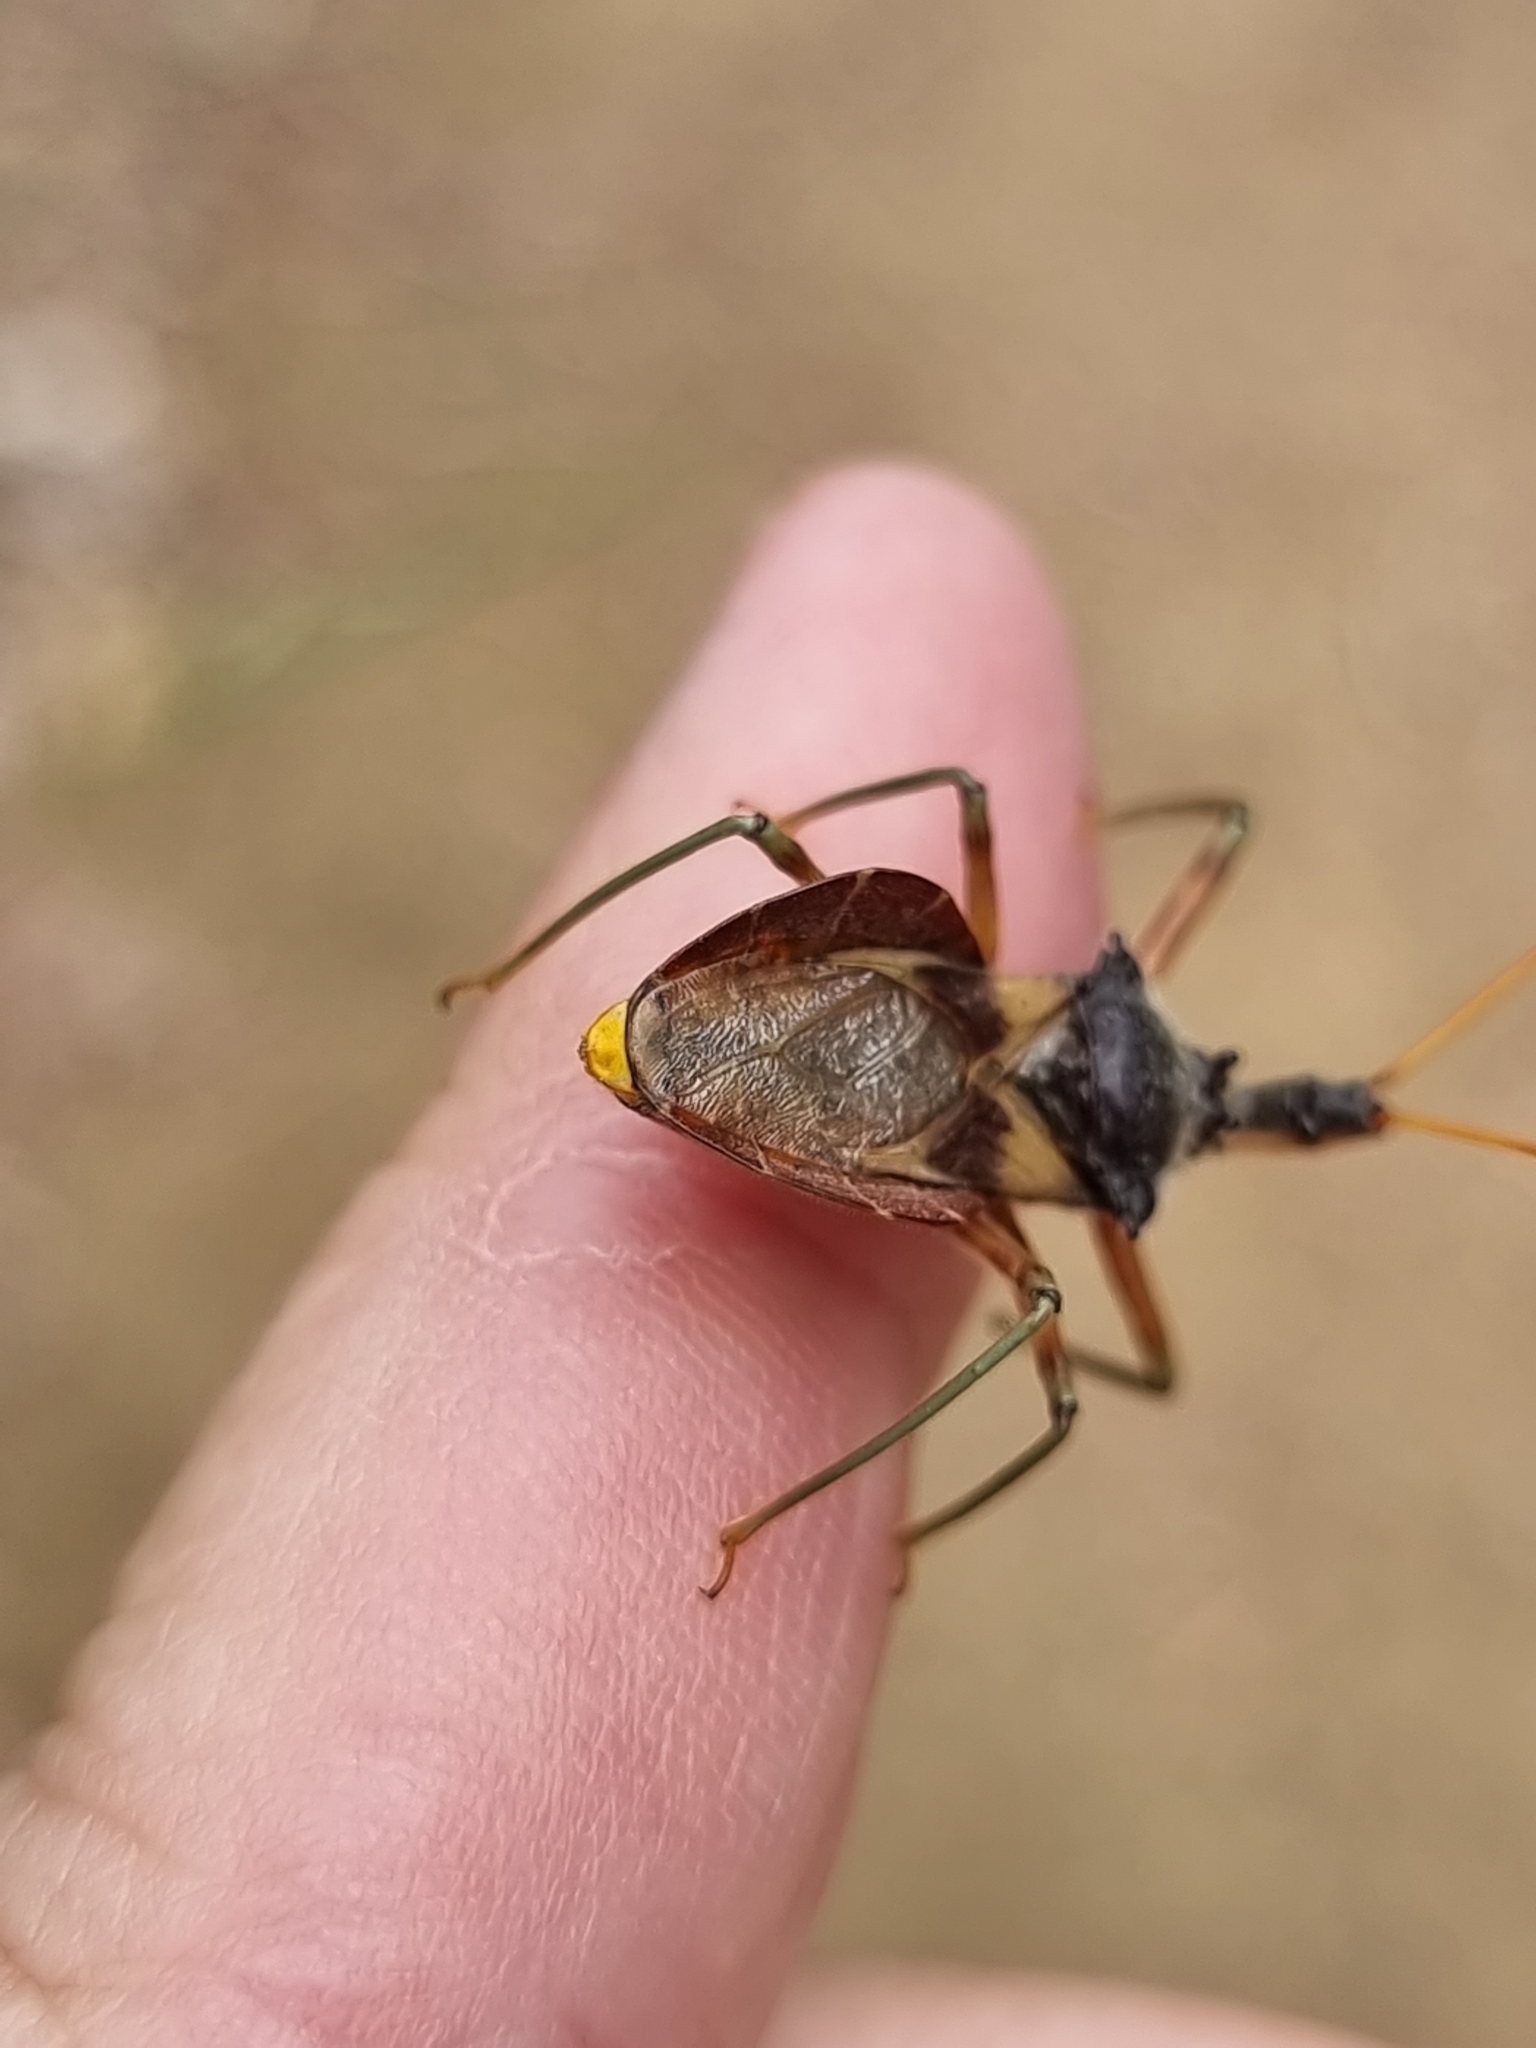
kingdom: Animalia
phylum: Arthropoda
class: Insecta
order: Hemiptera
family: Reduviidae
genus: Pristhesancus
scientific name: Pristhesancus plagipennis
